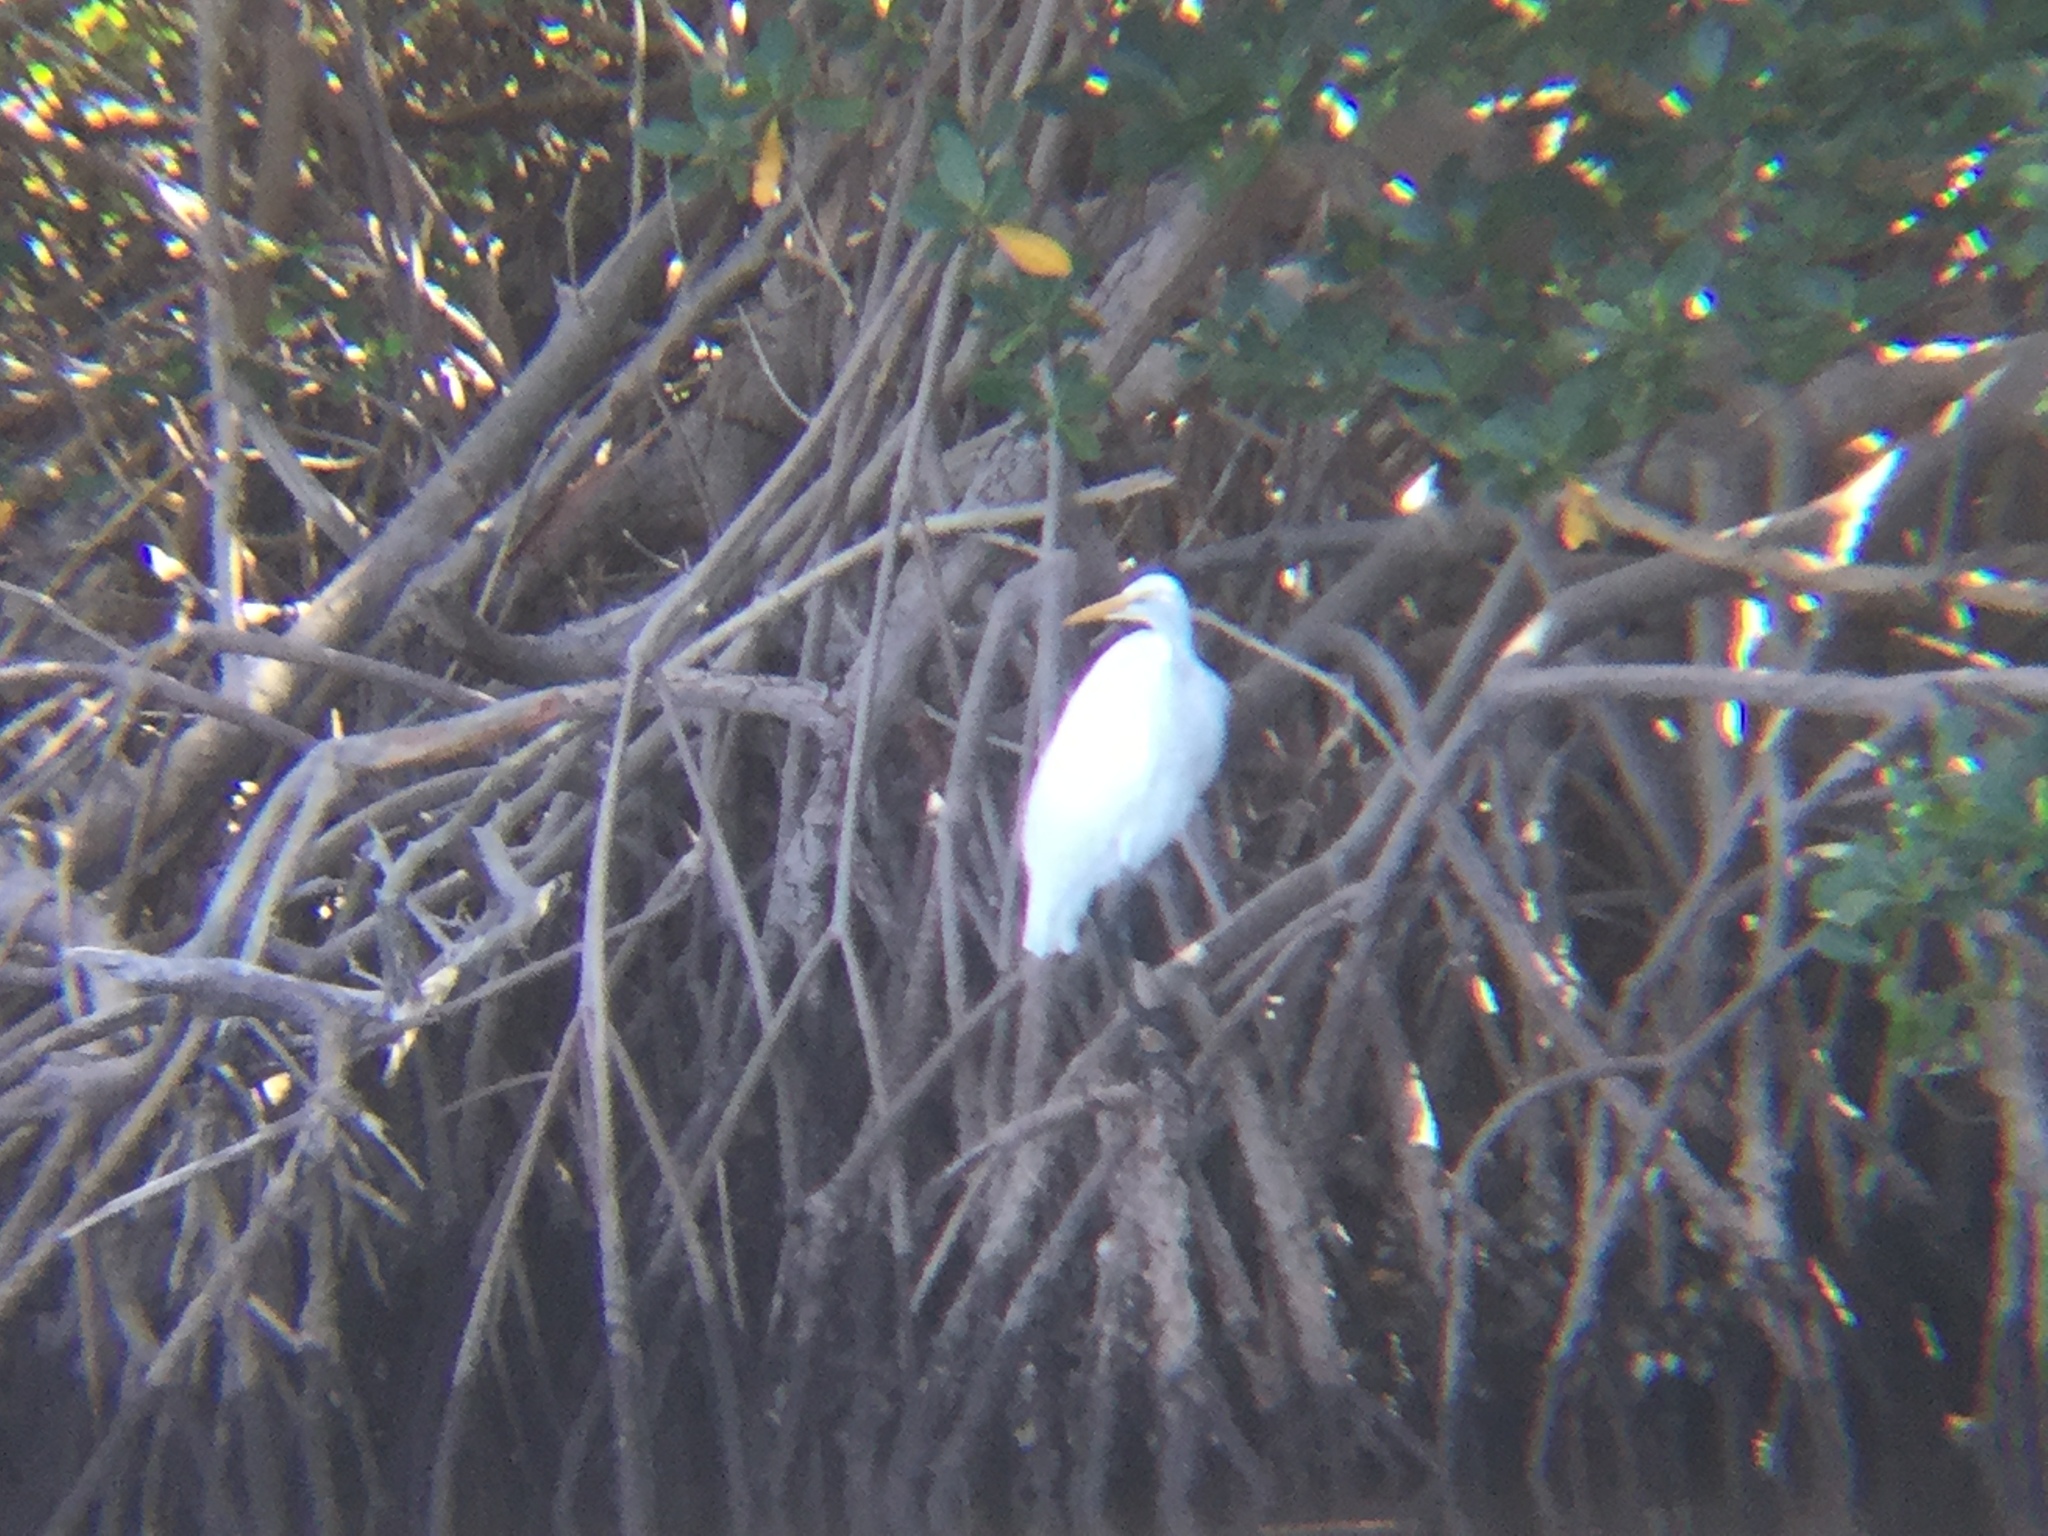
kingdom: Animalia
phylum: Chordata
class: Aves
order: Pelecaniformes
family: Ardeidae
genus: Ardea
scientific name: Ardea alba
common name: Great egret
